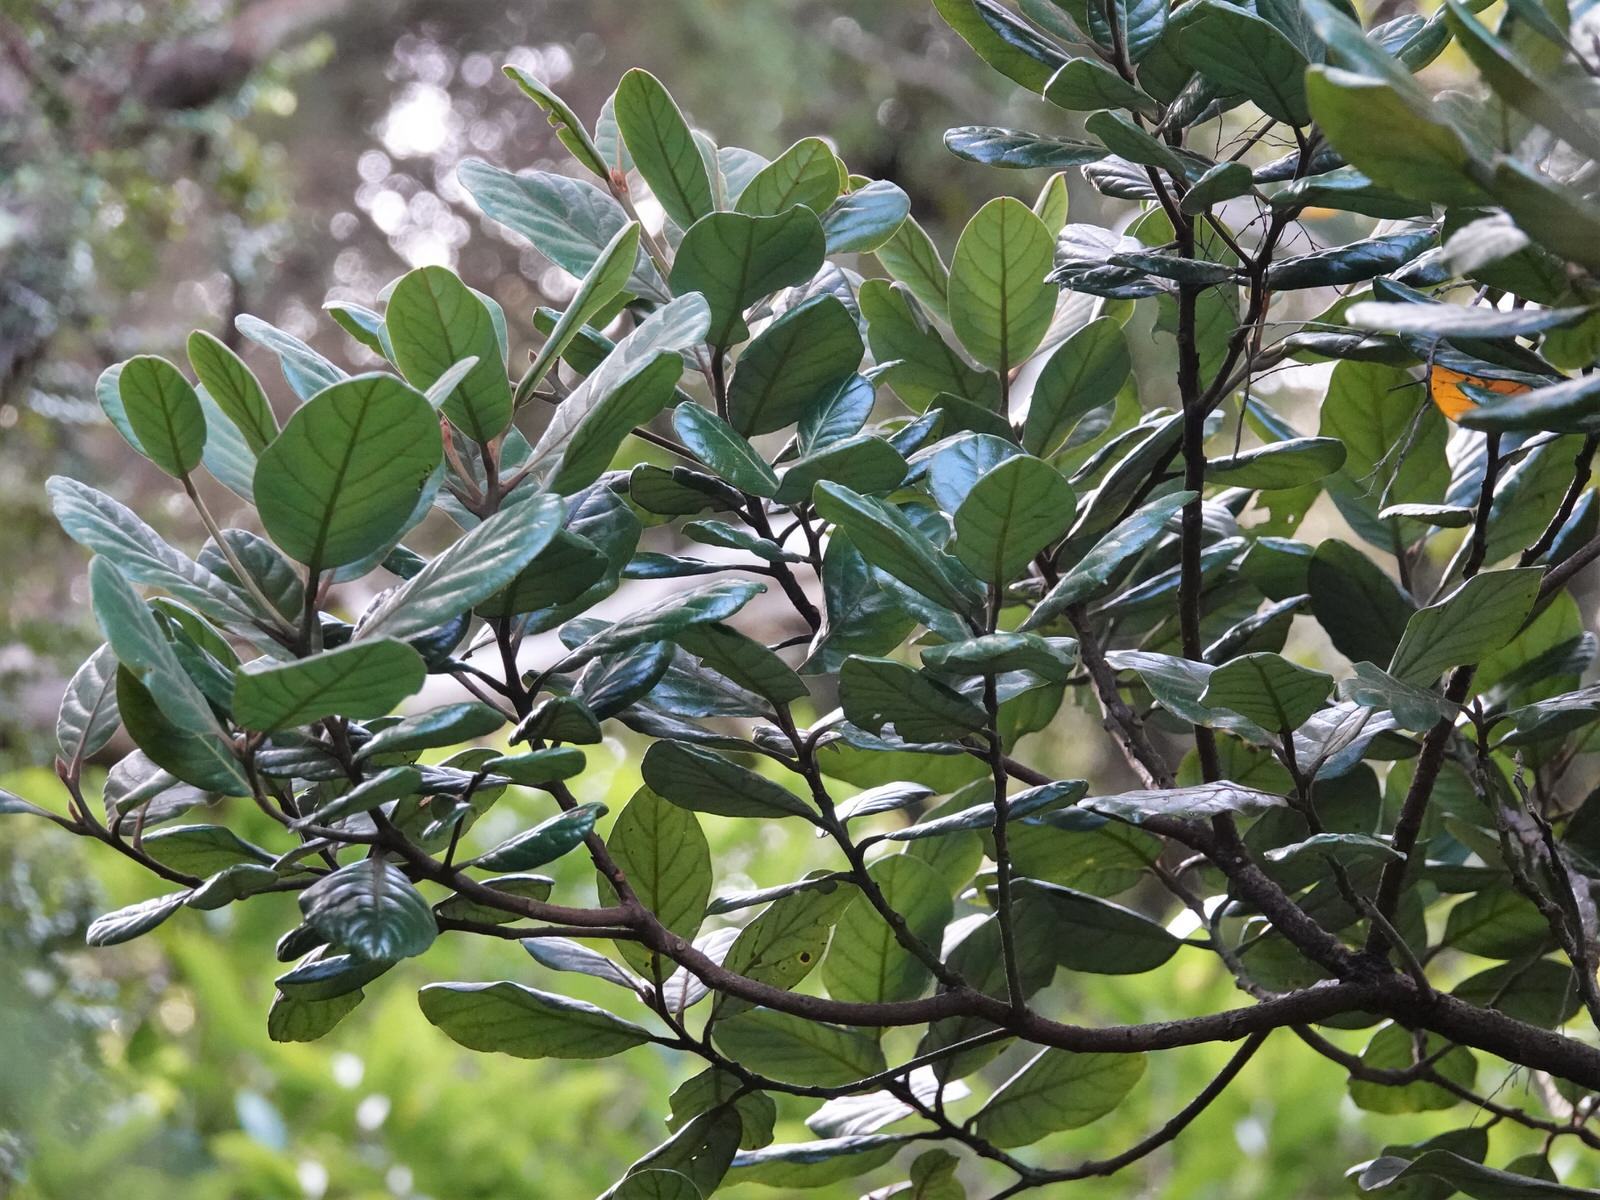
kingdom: Plantae
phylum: Tracheophyta
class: Magnoliopsida
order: Laurales
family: Lauraceae
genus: Beilschmiedia
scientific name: Beilschmiedia tarairi
